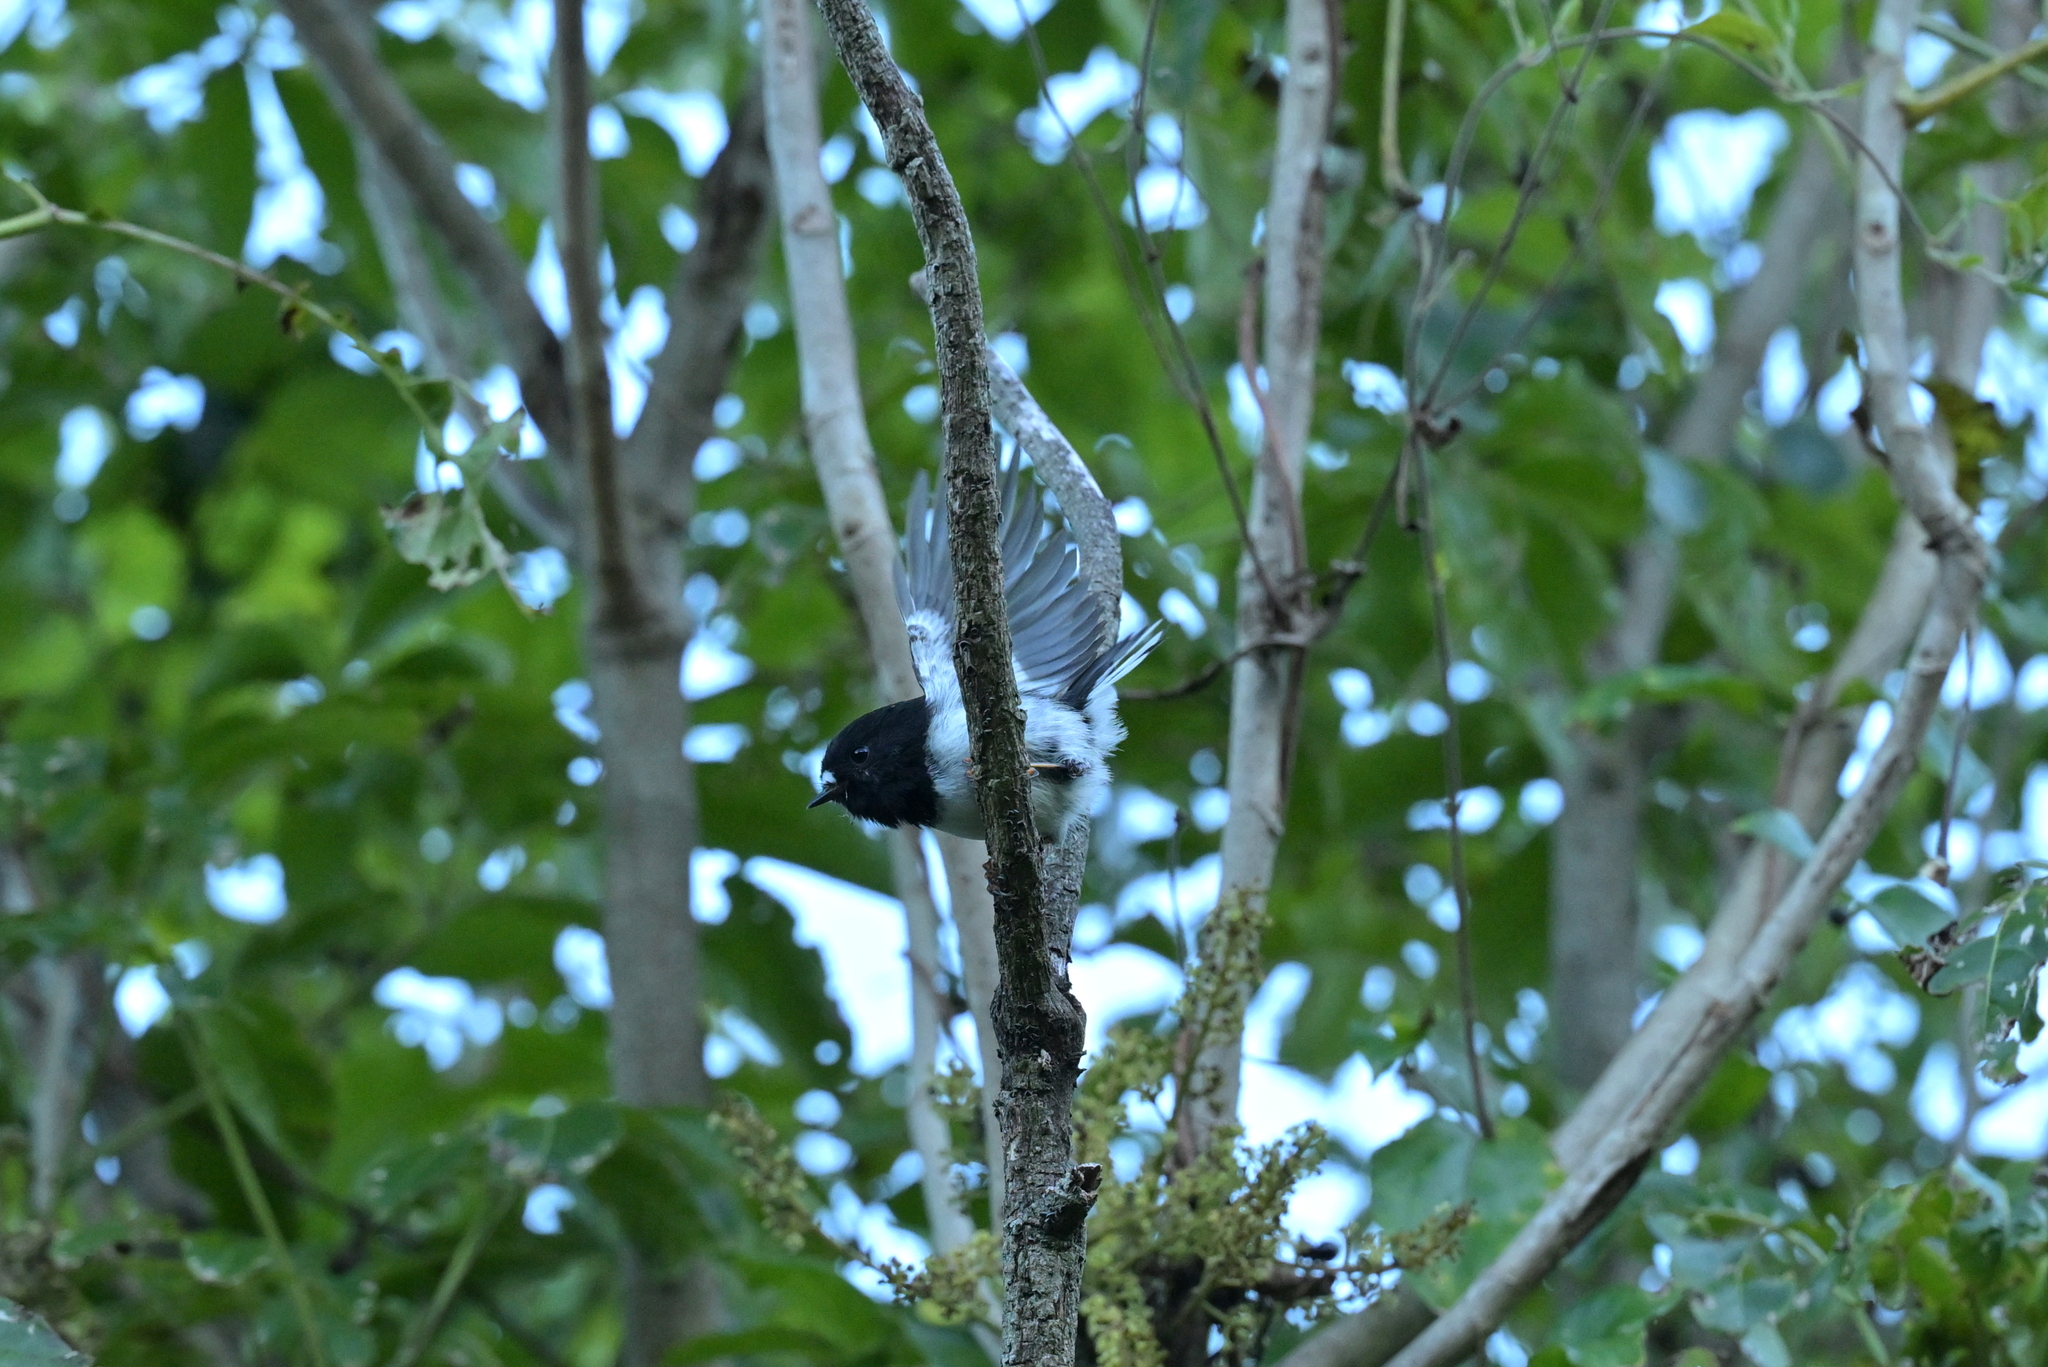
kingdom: Animalia
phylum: Chordata
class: Aves
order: Passeriformes
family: Petroicidae
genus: Petroica
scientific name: Petroica macrocephala
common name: Tomtit
